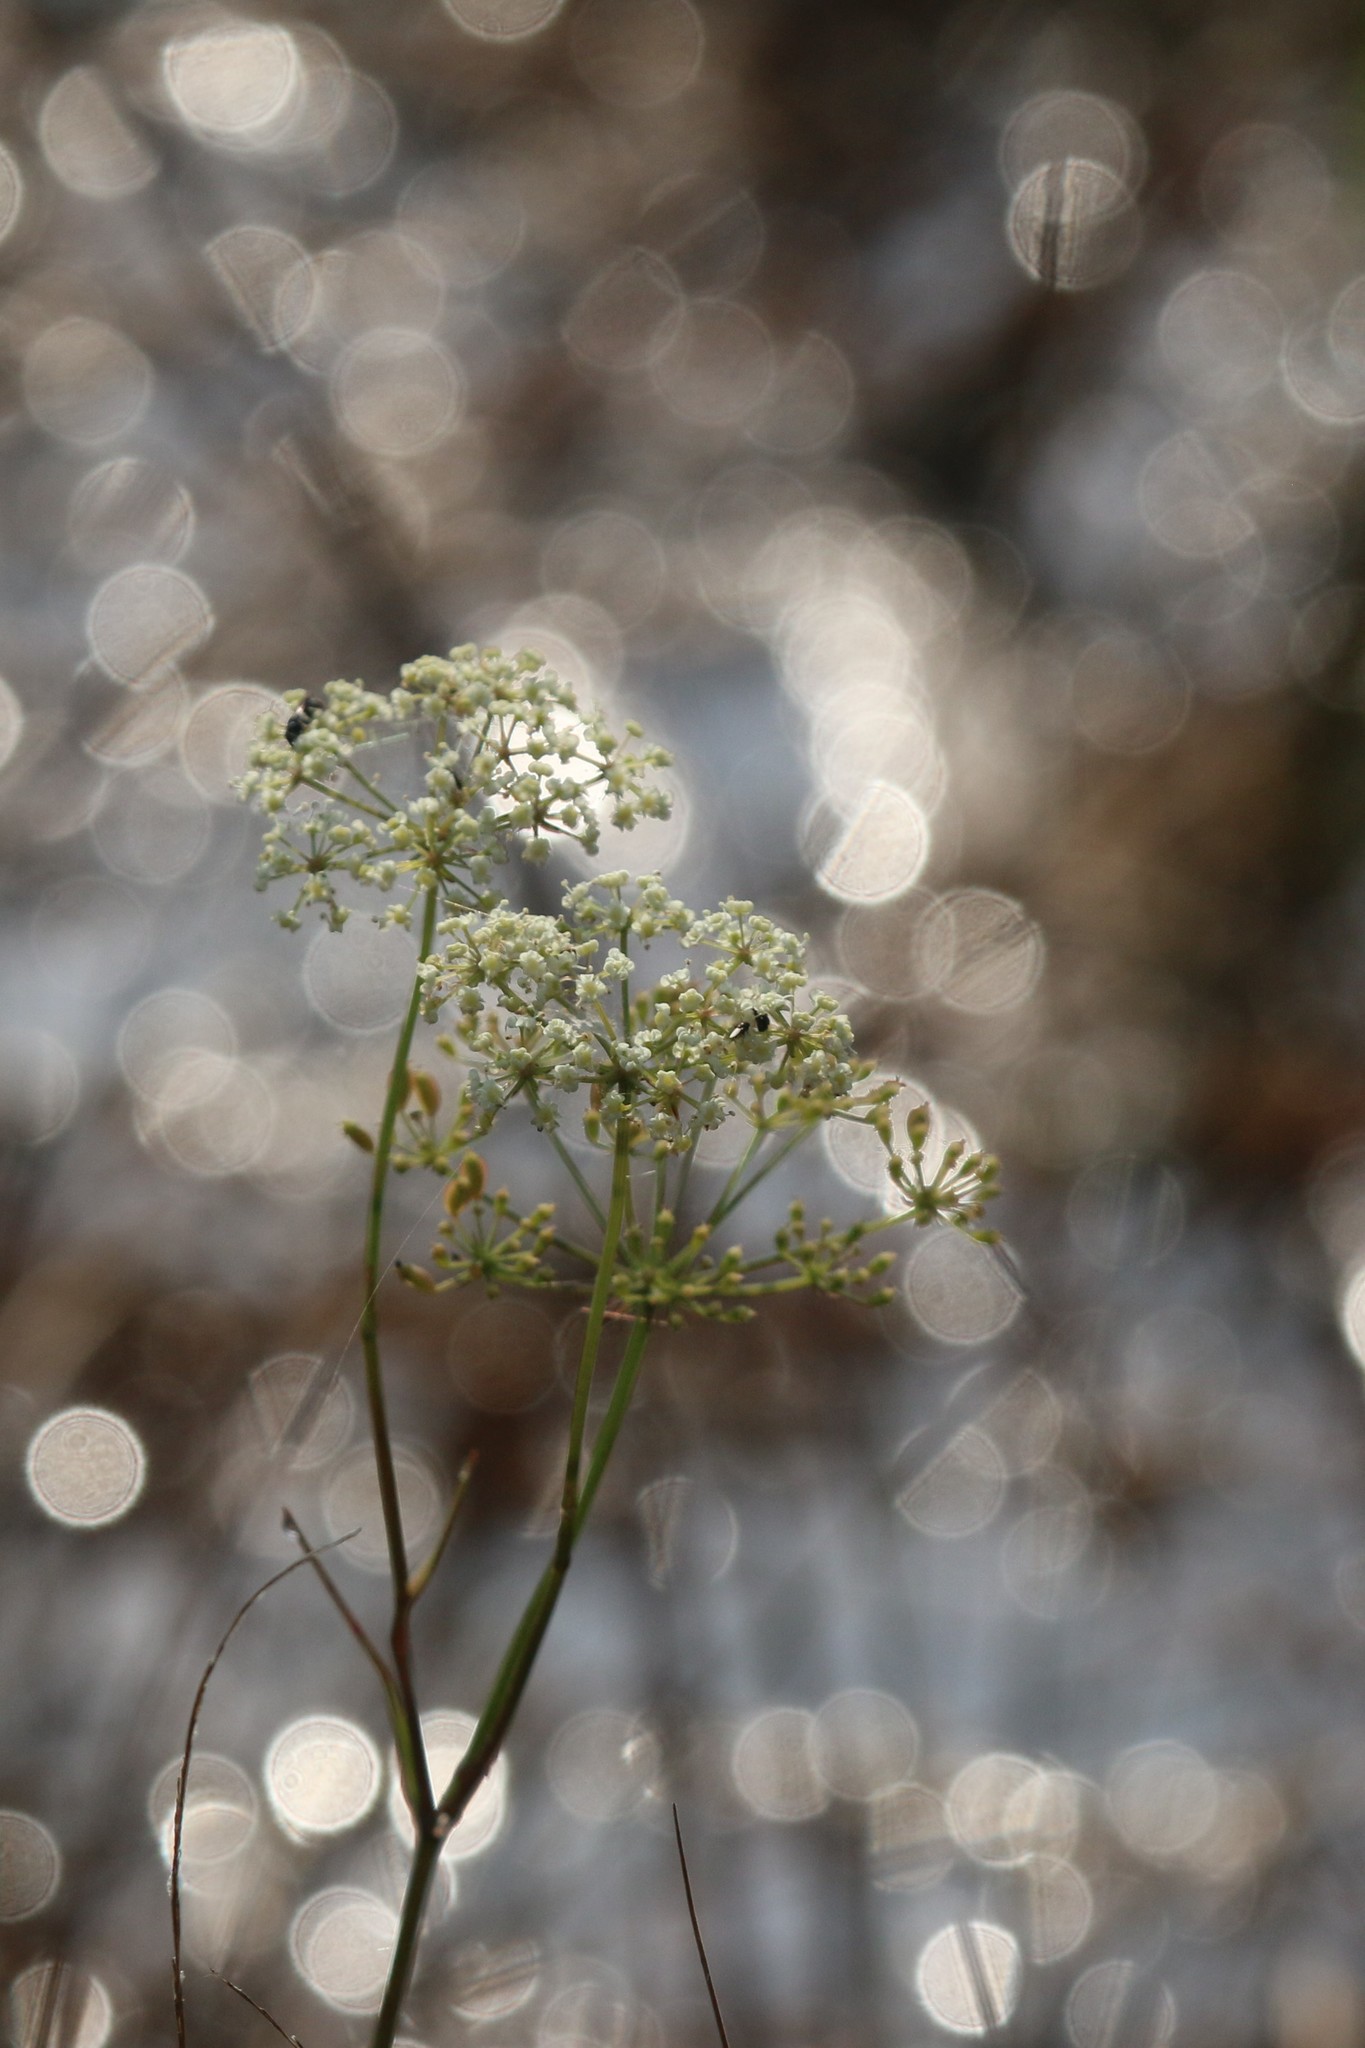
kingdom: Plantae
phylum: Tracheophyta
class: Magnoliopsida
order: Apiales
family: Apiaceae
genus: Tiedemannia
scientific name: Tiedemannia filiformis
